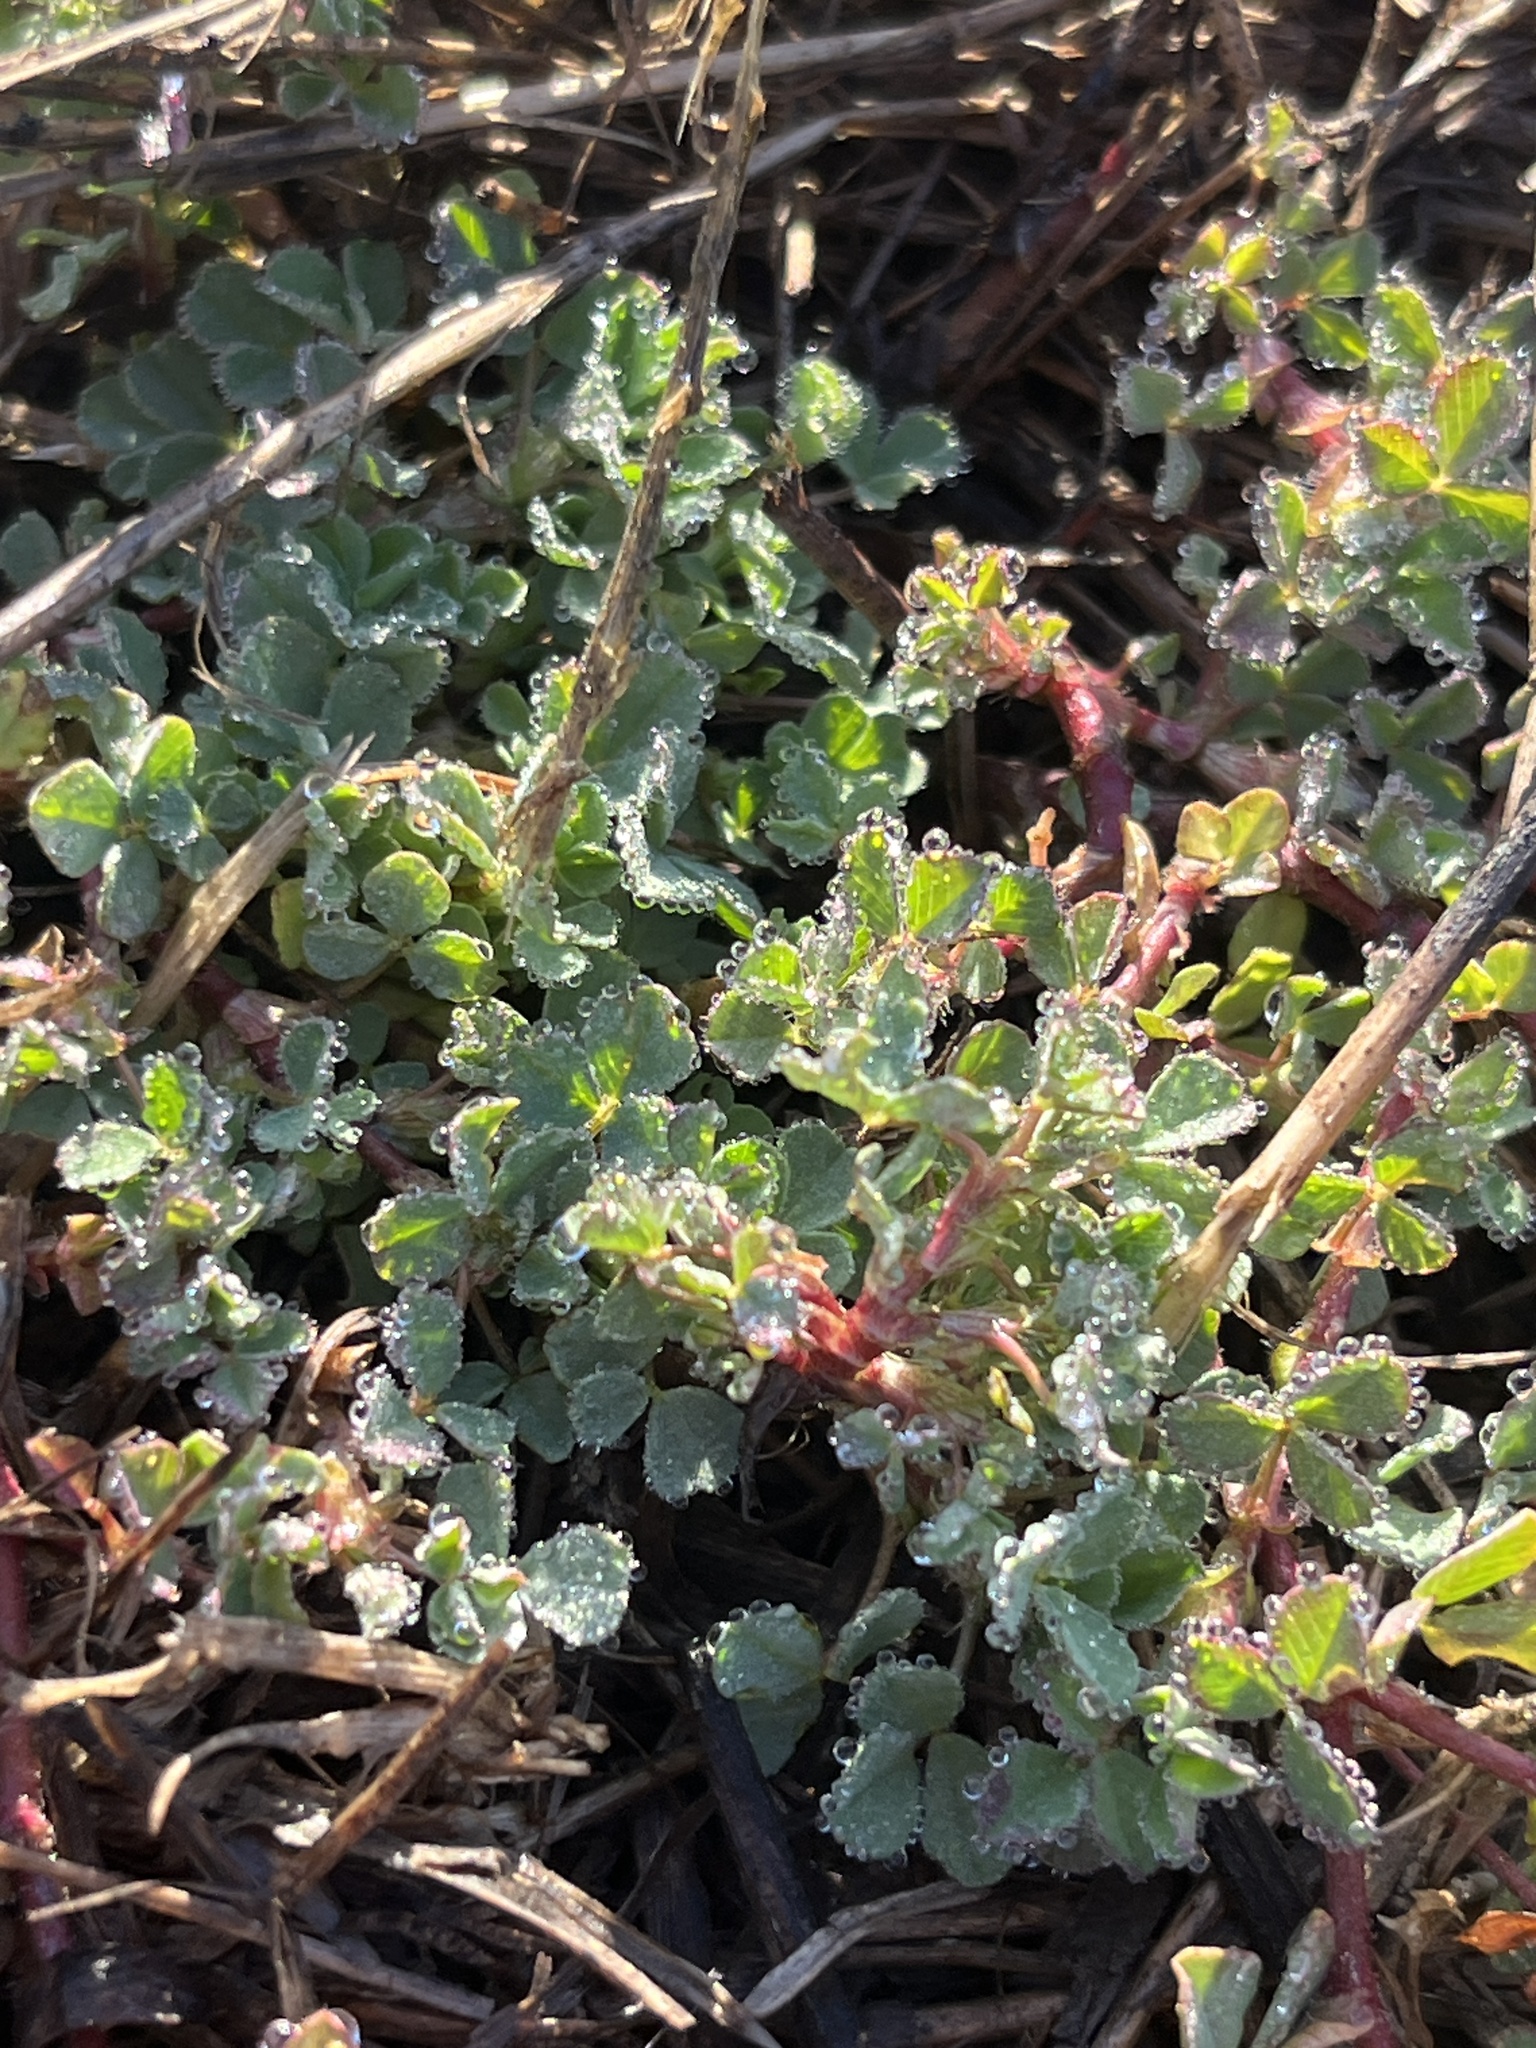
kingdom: Plantae
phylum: Tracheophyta
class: Magnoliopsida
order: Fabales
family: Fabaceae
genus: Trifolium
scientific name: Trifolium dubium
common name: Suckling clover
